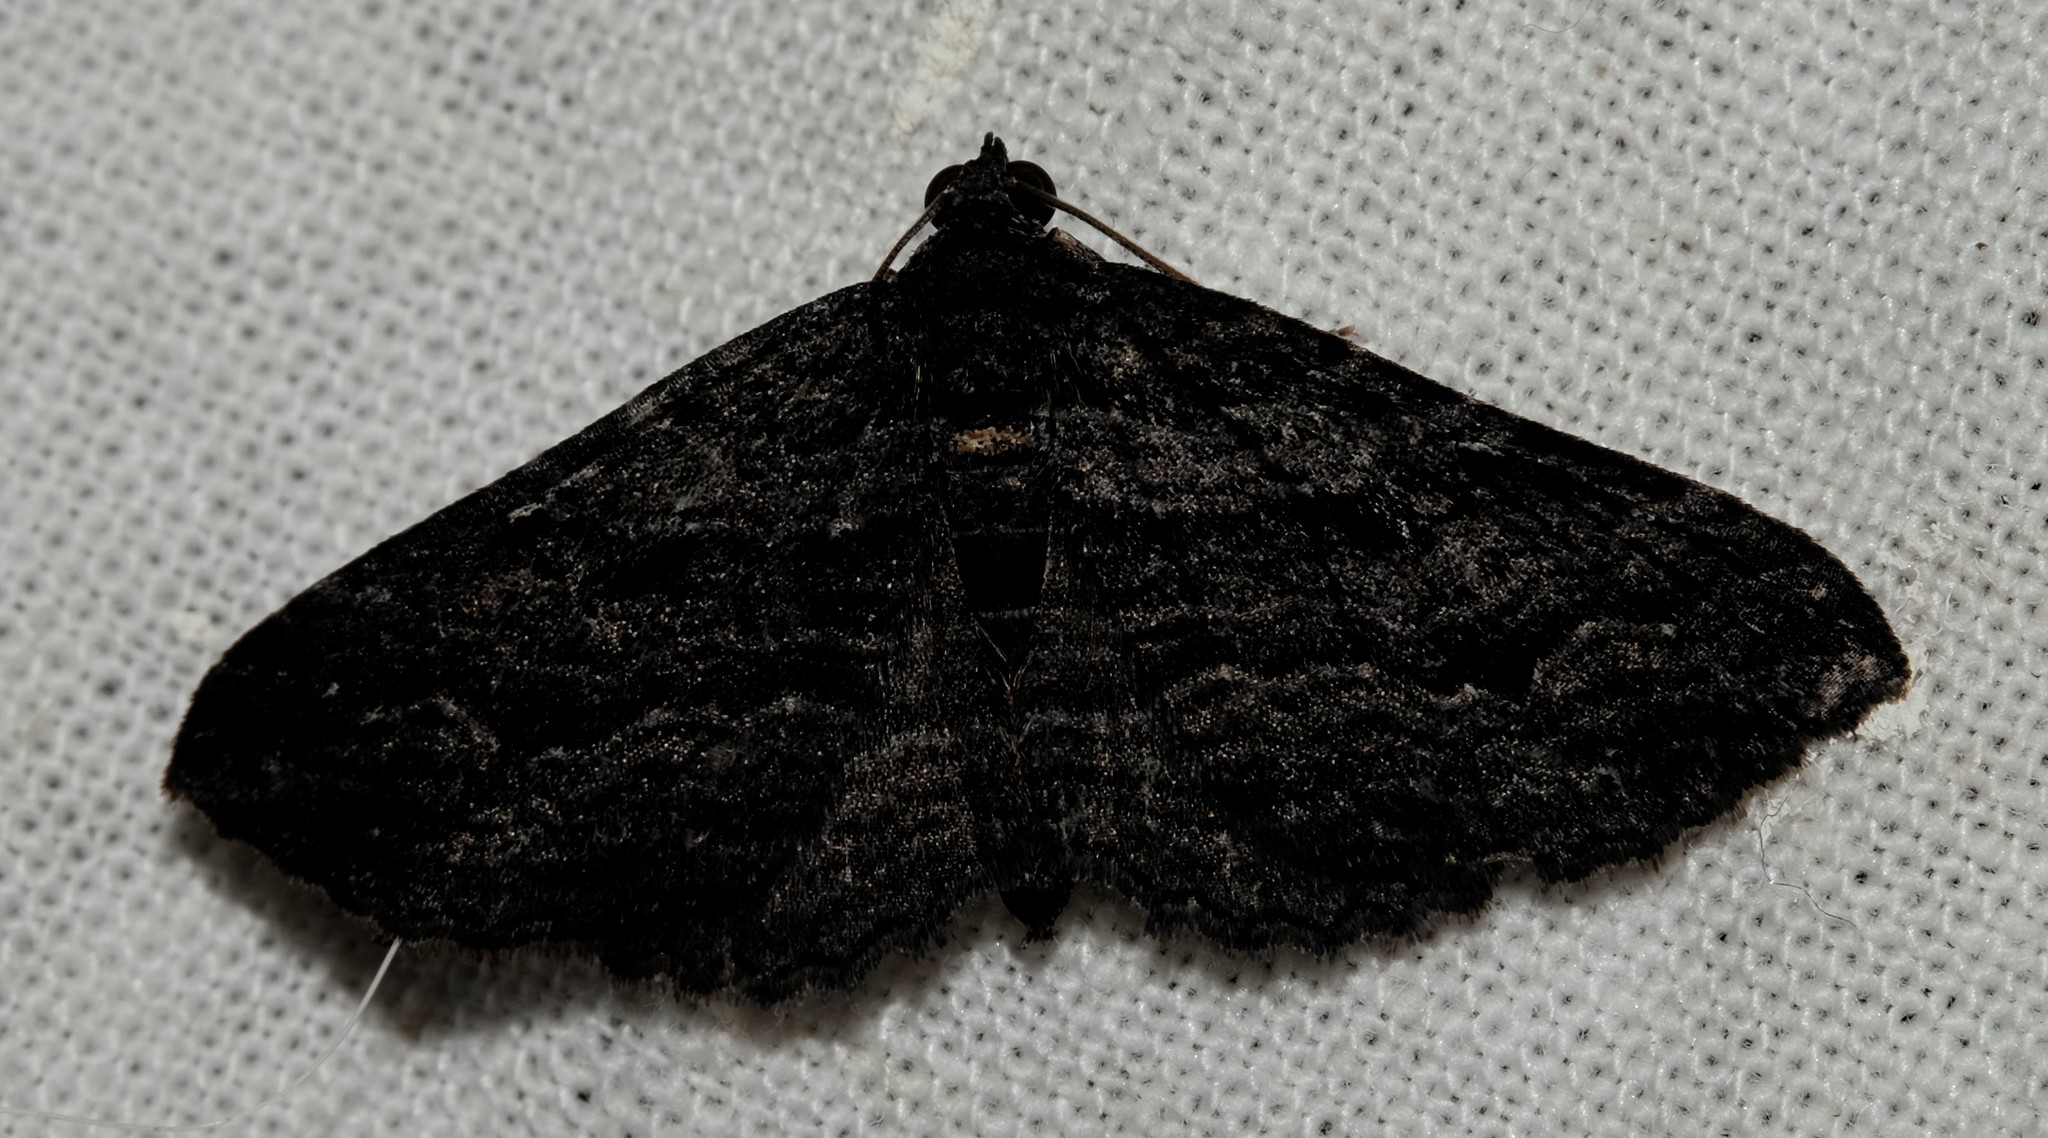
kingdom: Animalia
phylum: Arthropoda
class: Insecta
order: Lepidoptera
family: Geometridae
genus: Chrysolarentia
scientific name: Chrysolarentia severata
